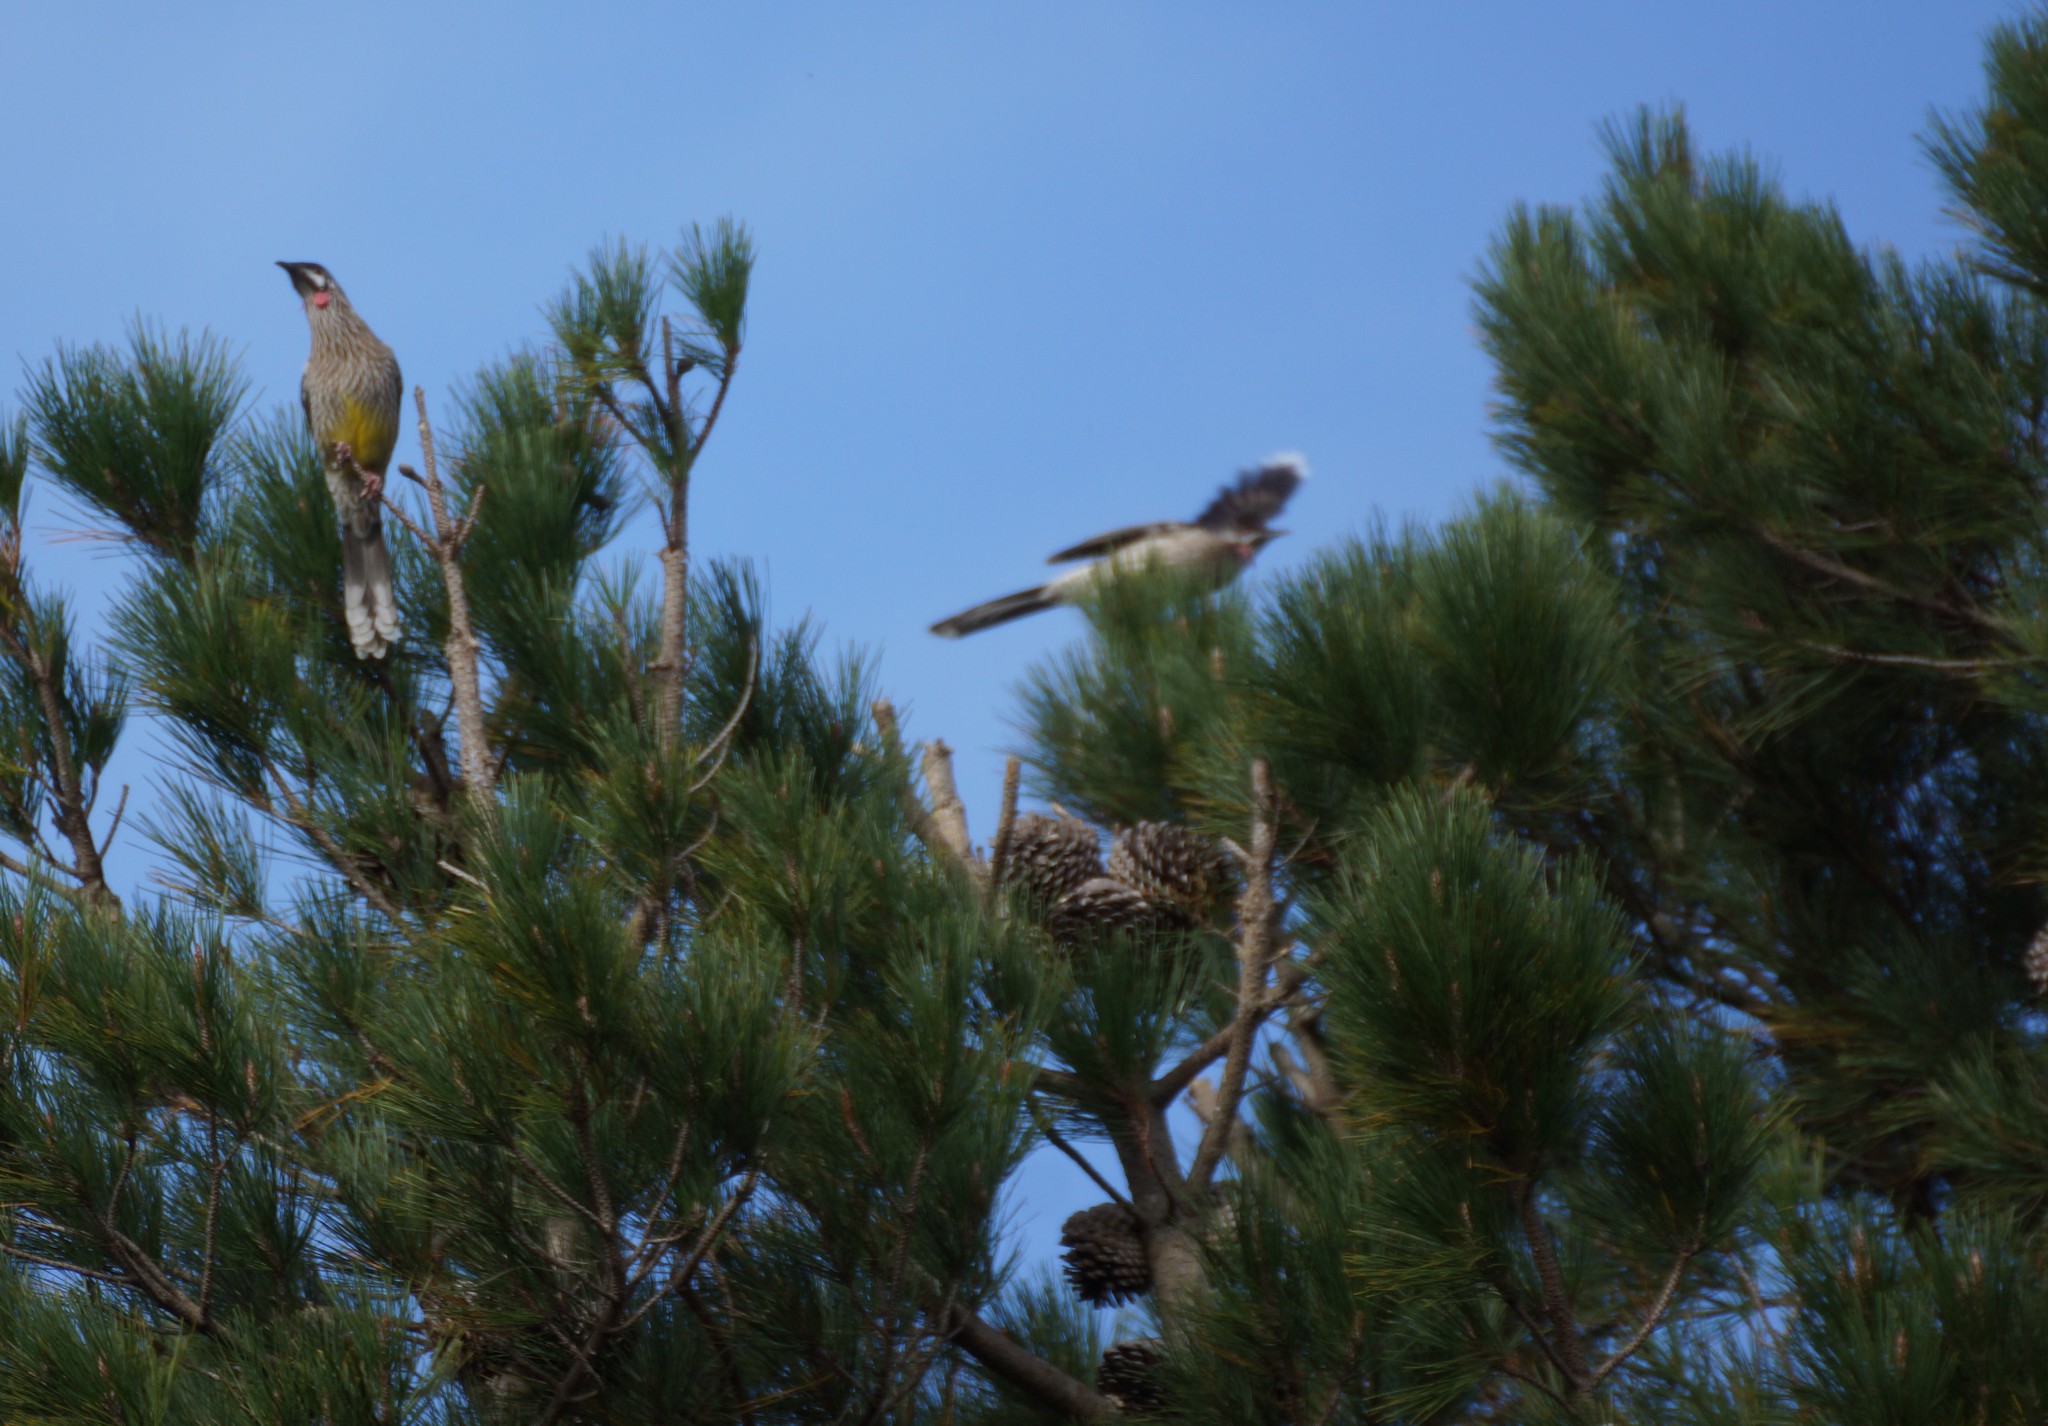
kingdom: Animalia
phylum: Chordata
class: Aves
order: Passeriformes
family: Meliphagidae
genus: Anthochaera
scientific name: Anthochaera carunculata
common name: Red wattlebird
